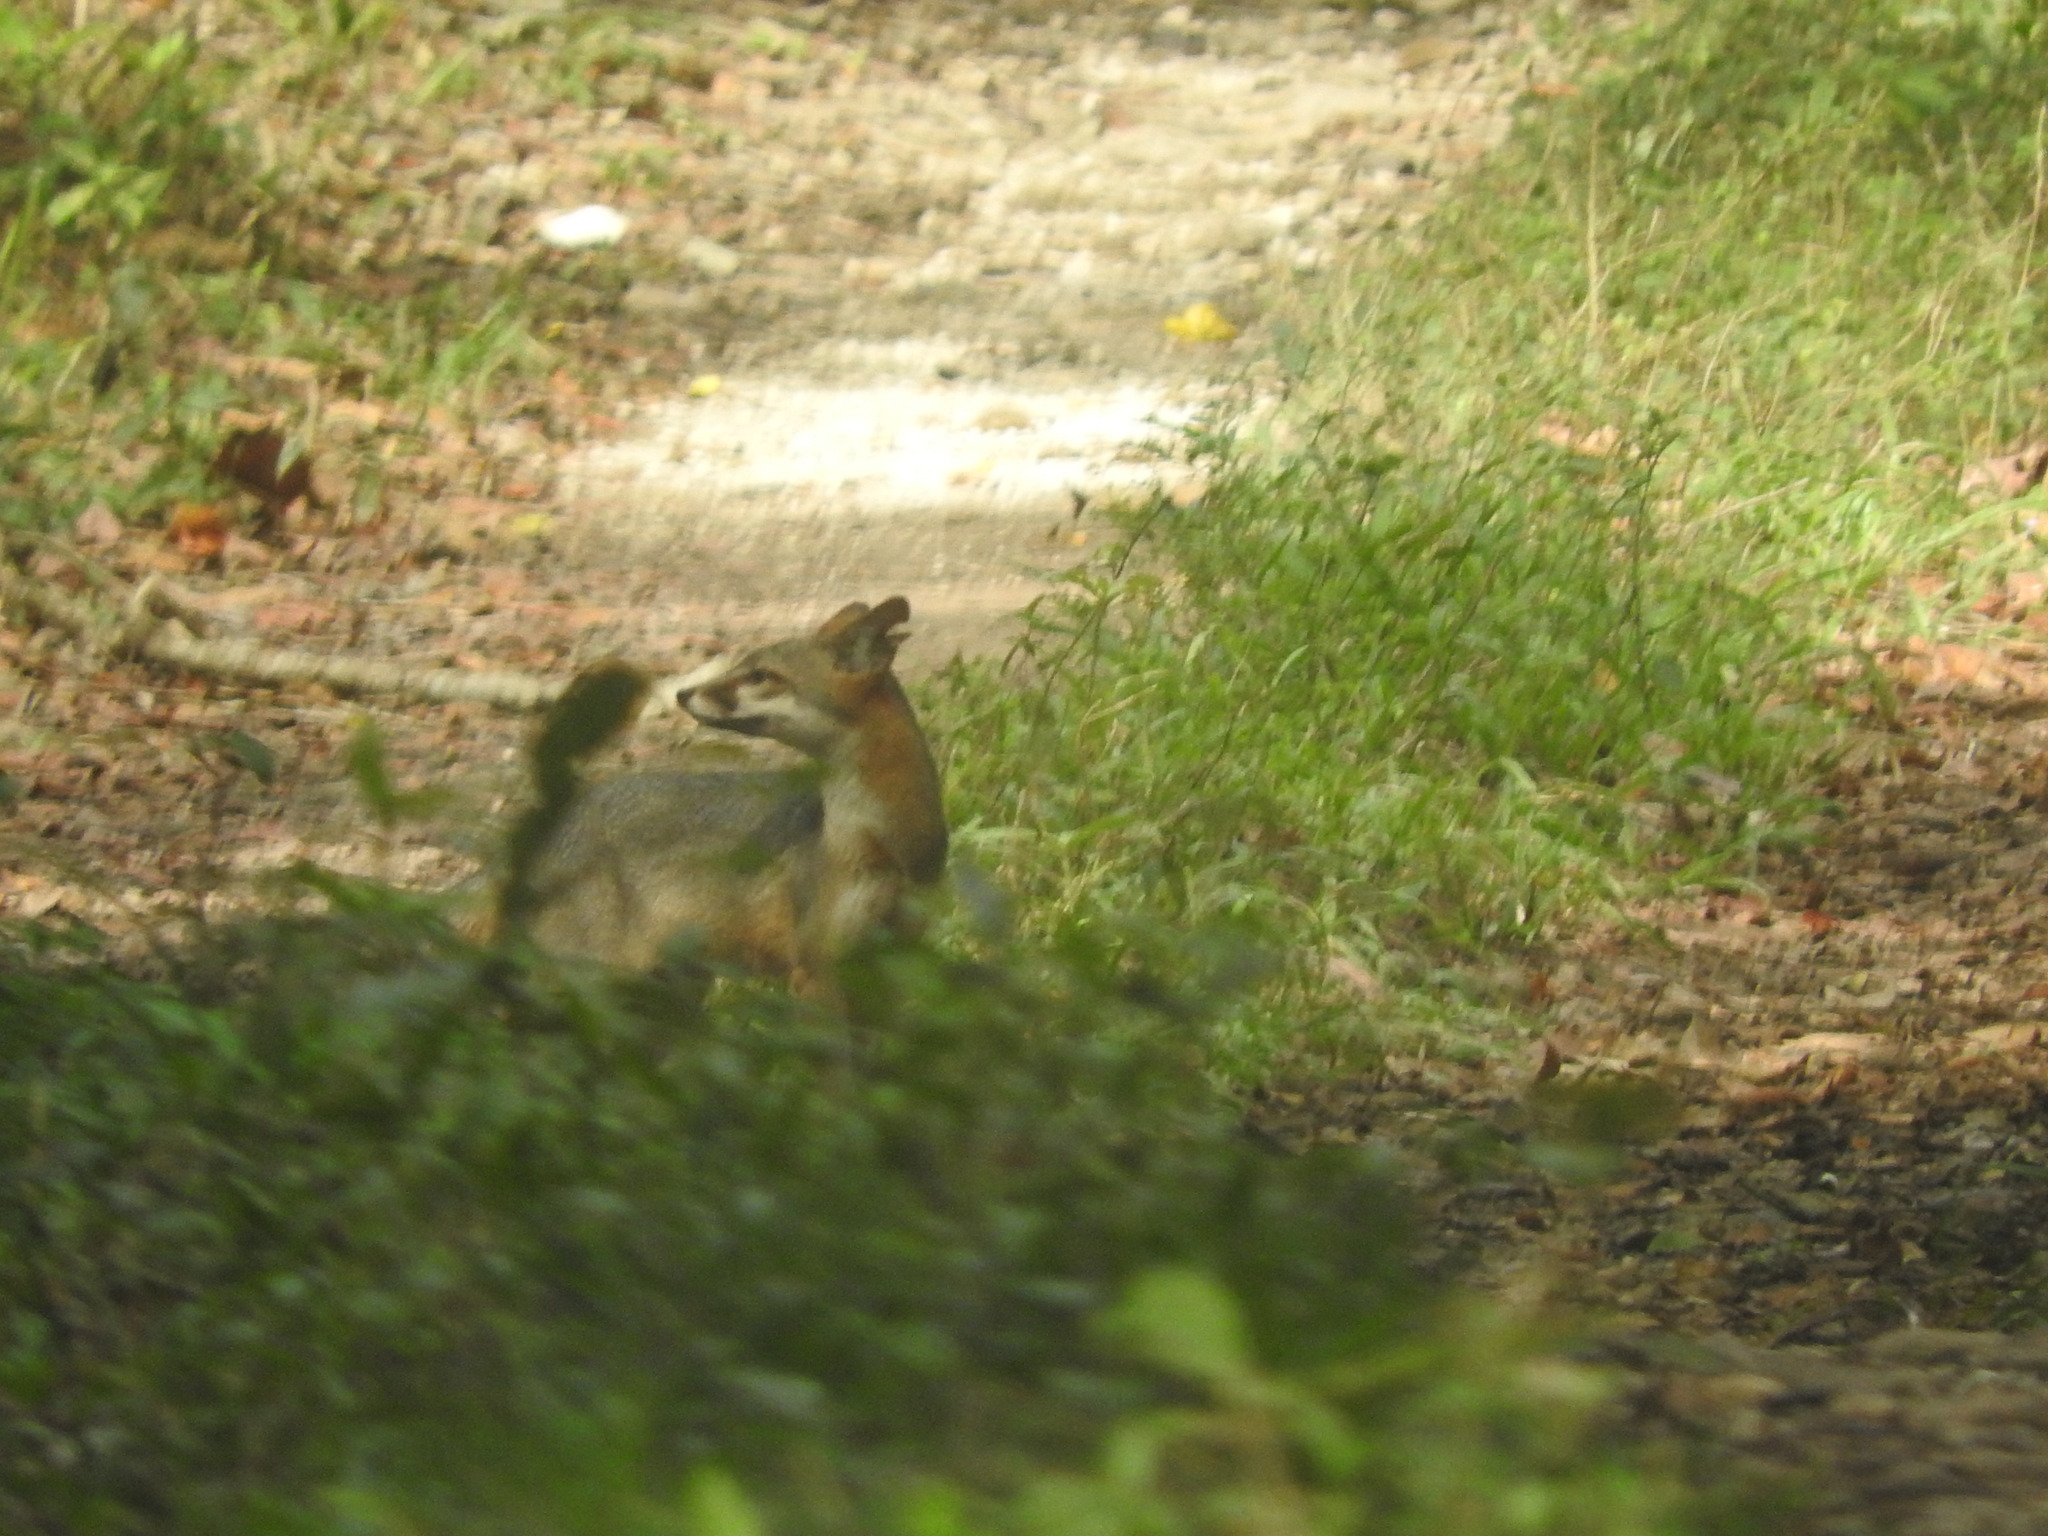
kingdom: Animalia
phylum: Chordata
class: Mammalia
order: Carnivora
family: Canidae
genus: Urocyon
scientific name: Urocyon cinereoargenteus
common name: Gray fox
